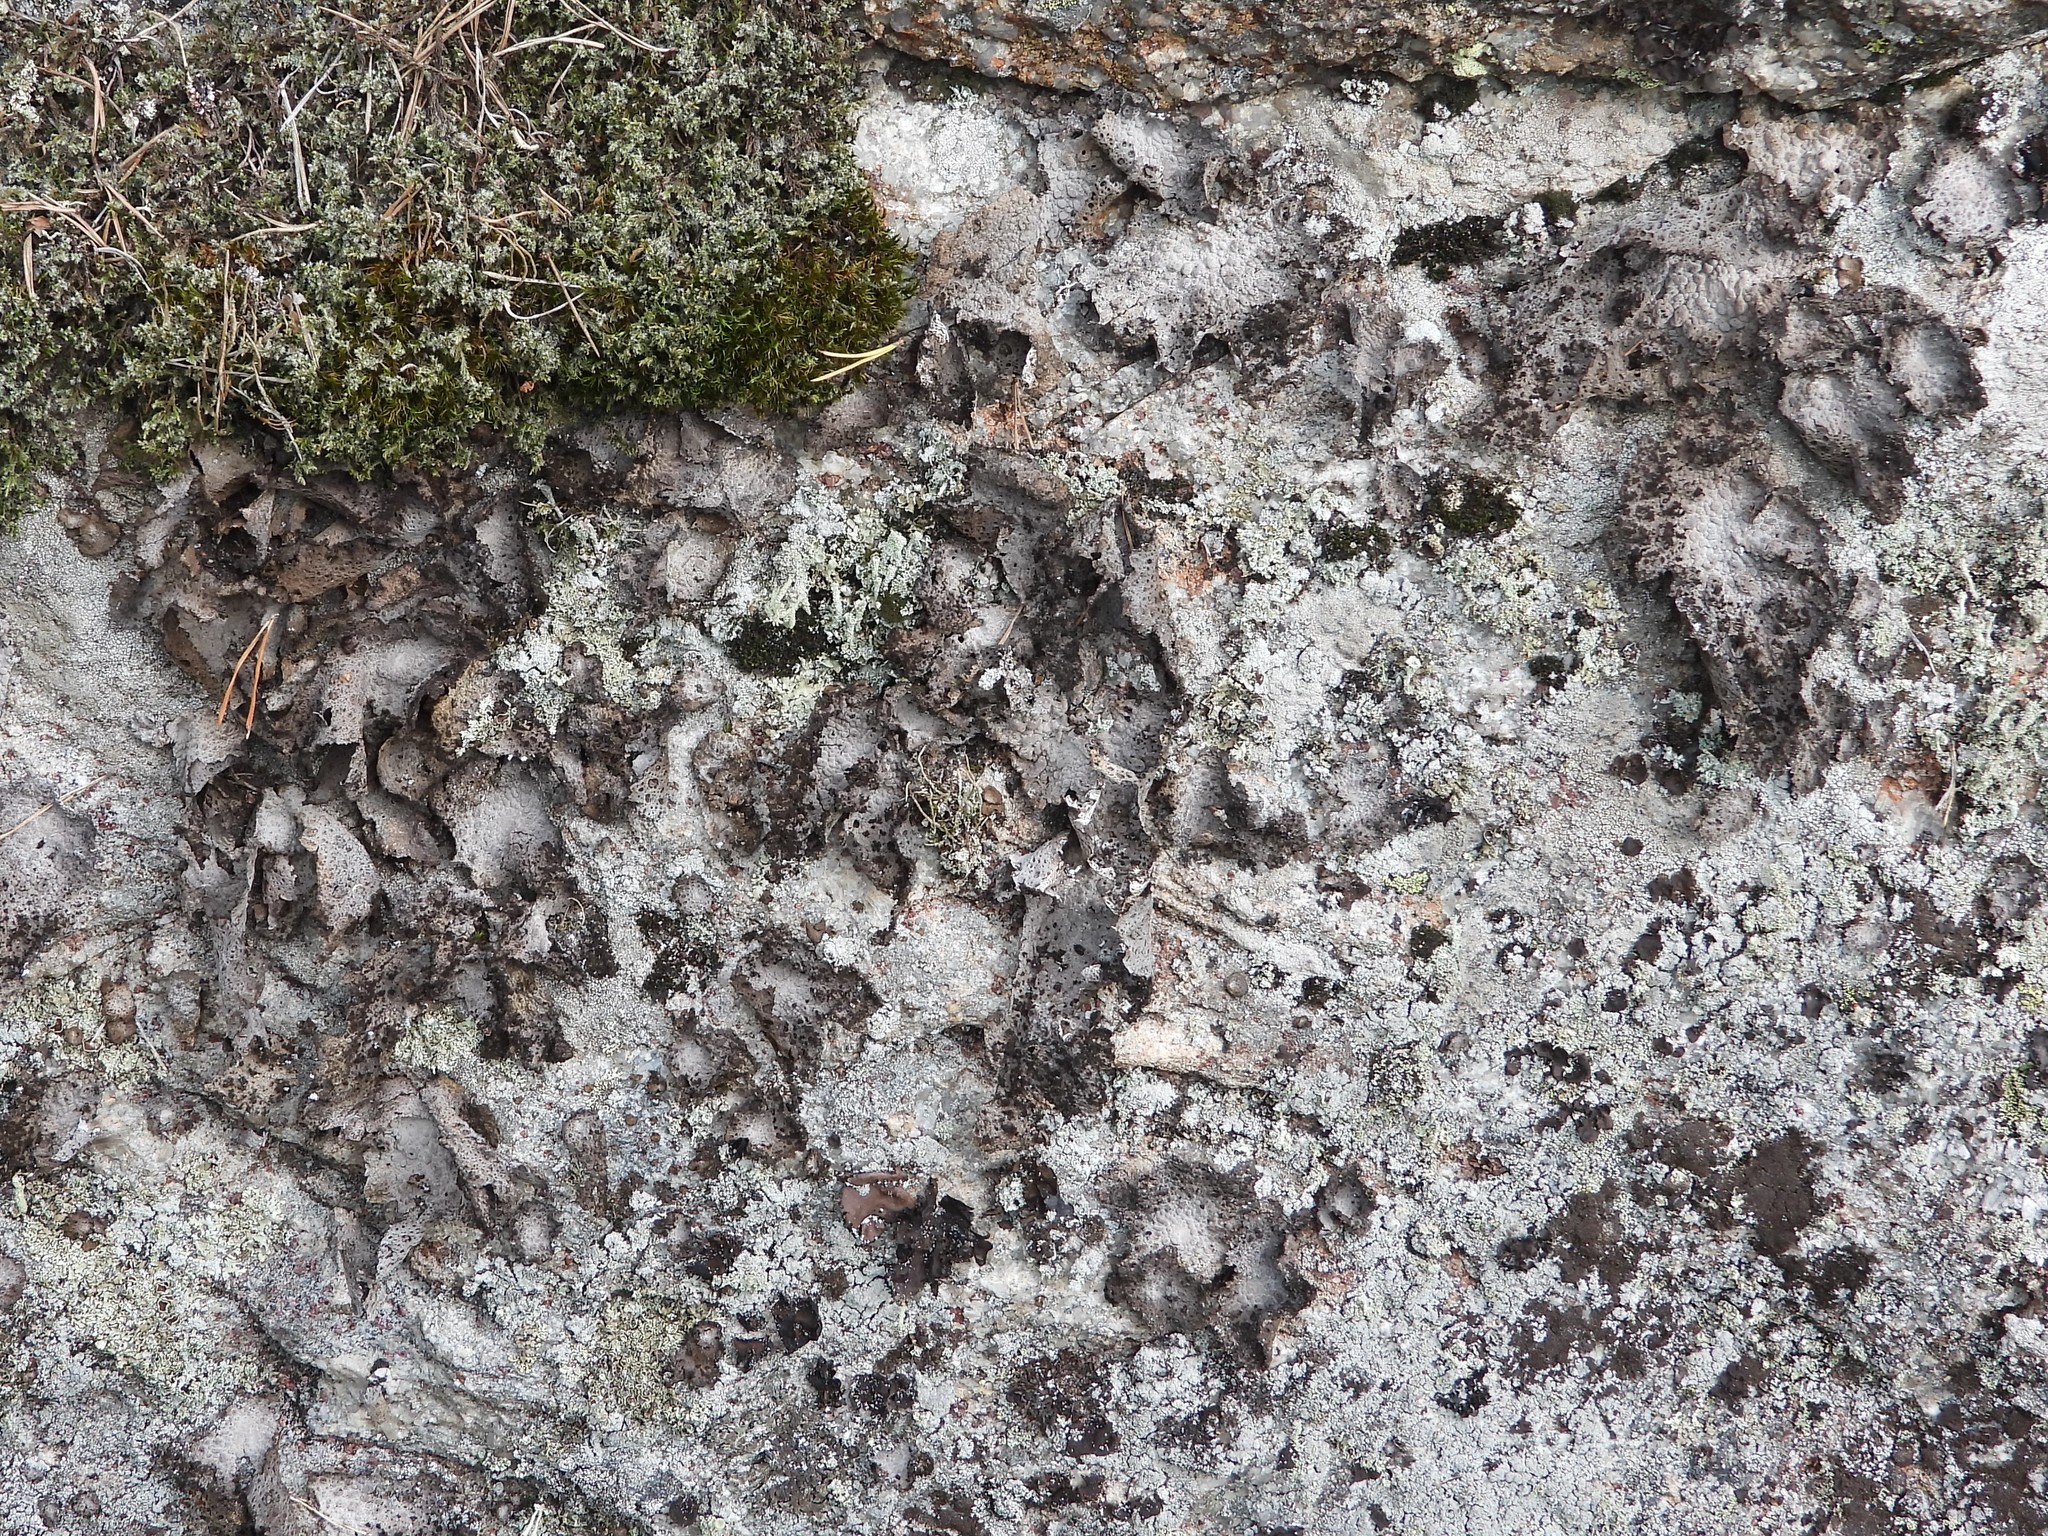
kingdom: Fungi
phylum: Ascomycota
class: Lecanoromycetes
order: Umbilicariales
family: Umbilicariaceae
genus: Lasallia
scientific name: Lasallia pustulata
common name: Blistered toadskin lichen
